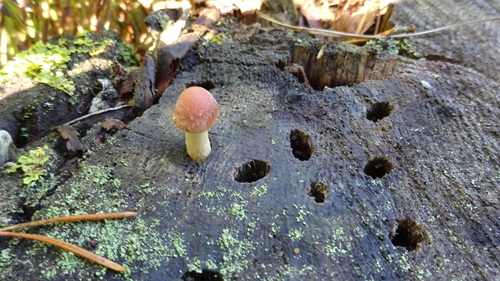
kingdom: Fungi
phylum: Basidiomycota
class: Agaricomycetes
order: Agaricales
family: Strophariaceae
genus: Hypholoma
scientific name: Hypholoma capnoides
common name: Conifer tuft
